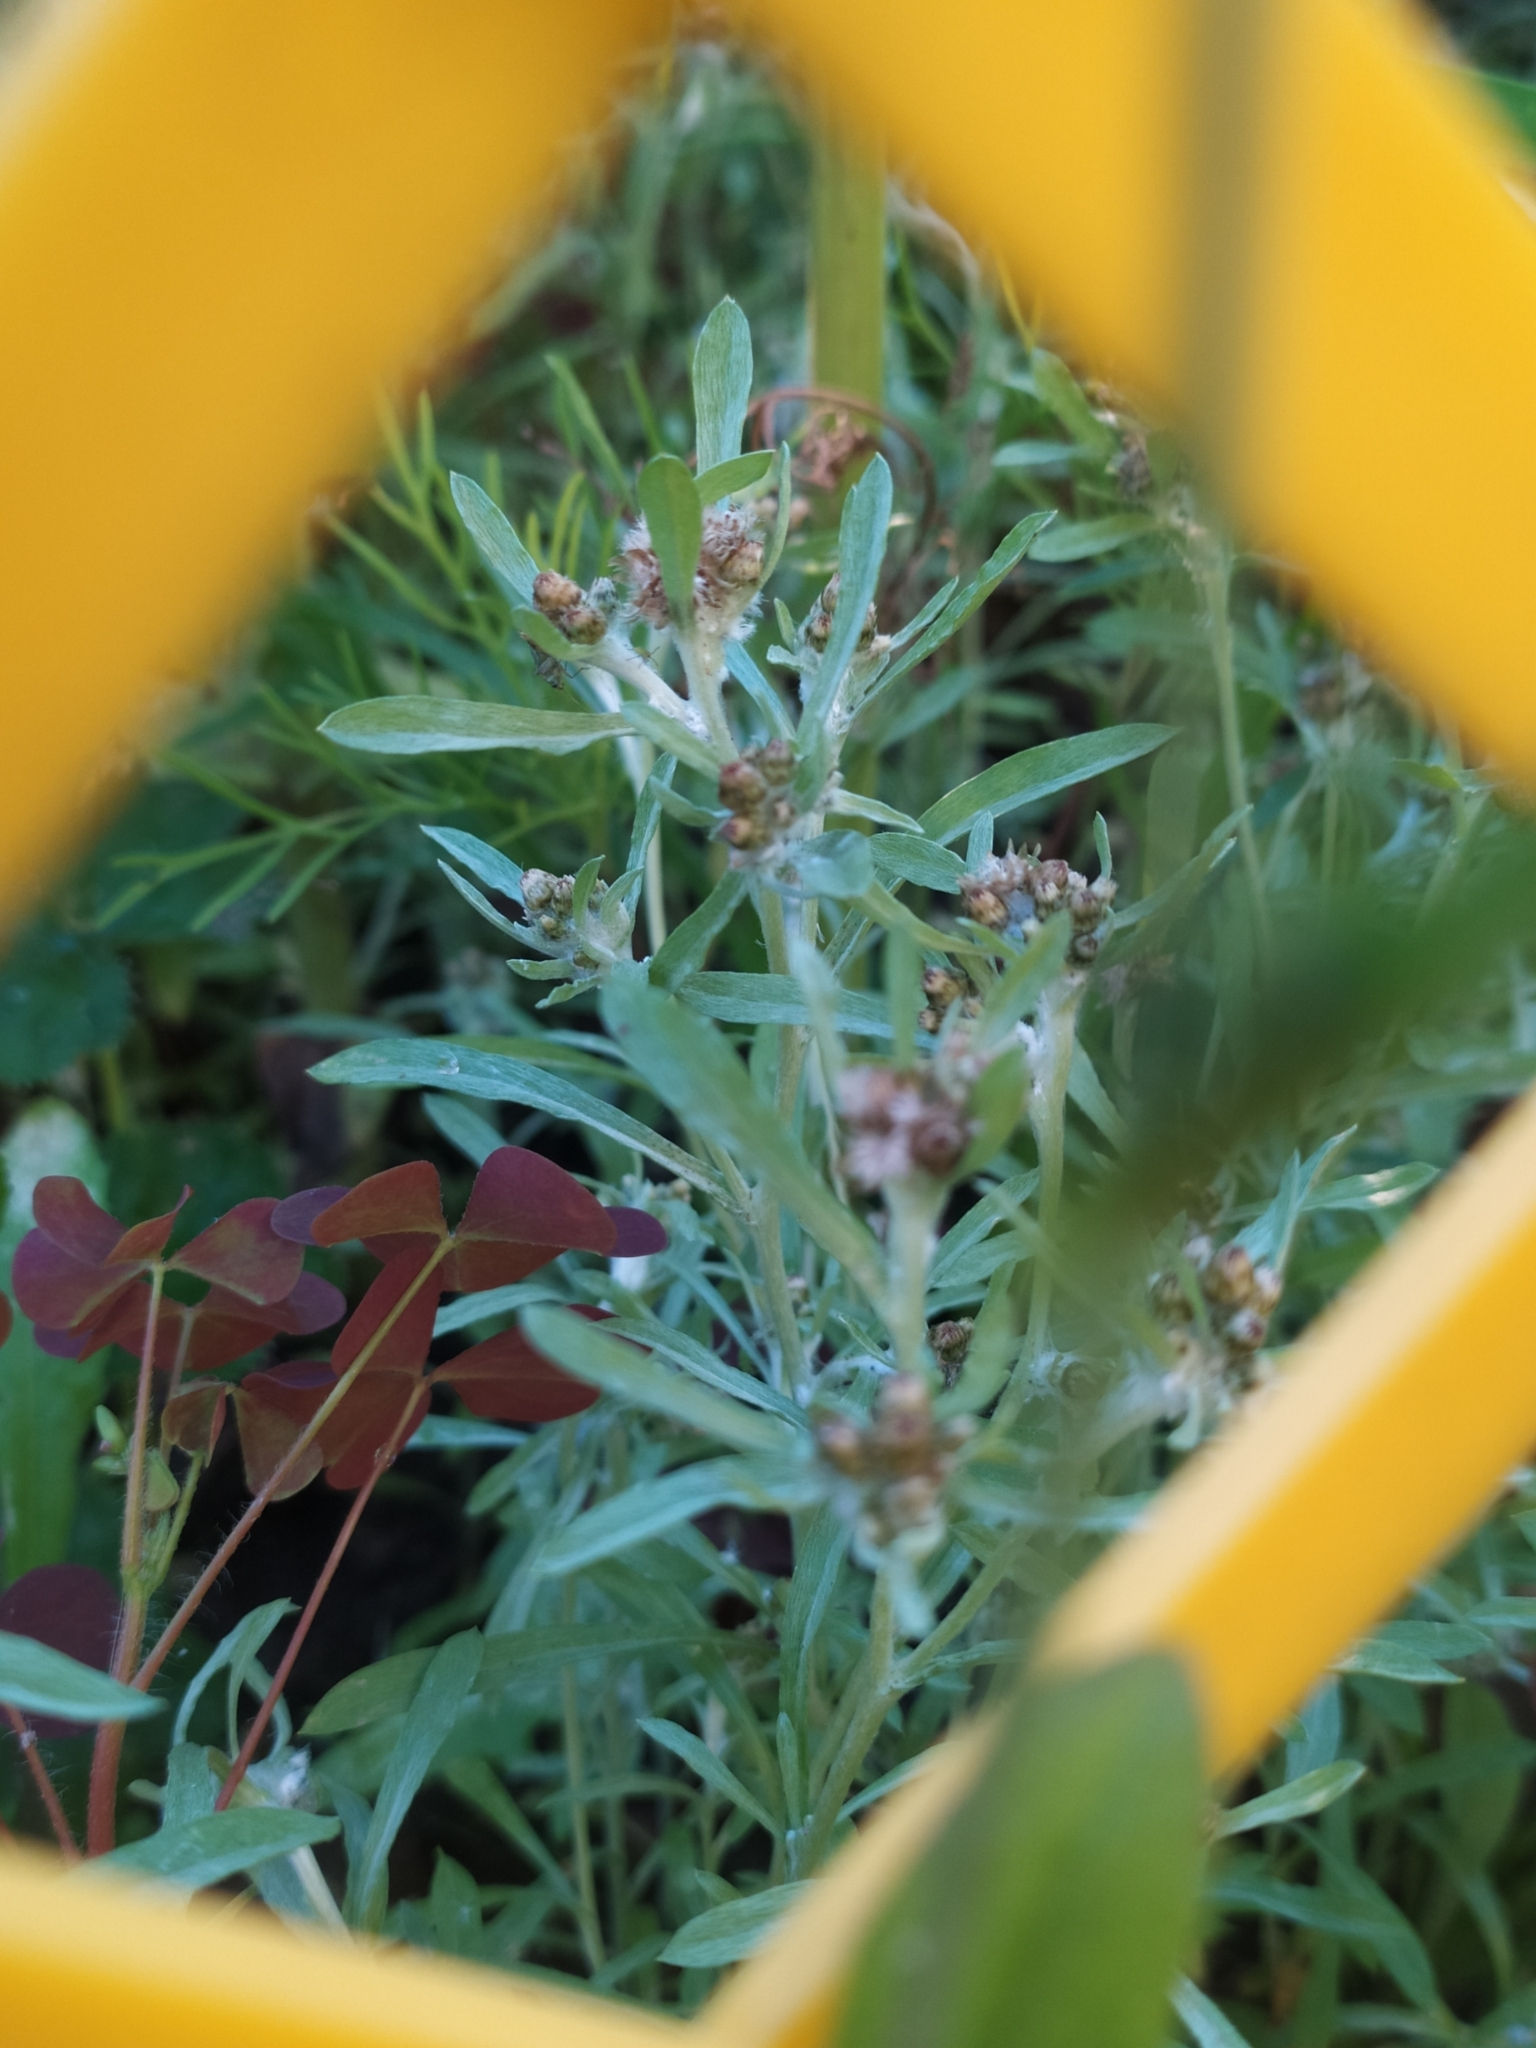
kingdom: Plantae
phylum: Tracheophyta
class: Magnoliopsida
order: Asterales
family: Asteraceae
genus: Gnaphalium
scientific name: Gnaphalium uliginosum
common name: Marsh cudweed
